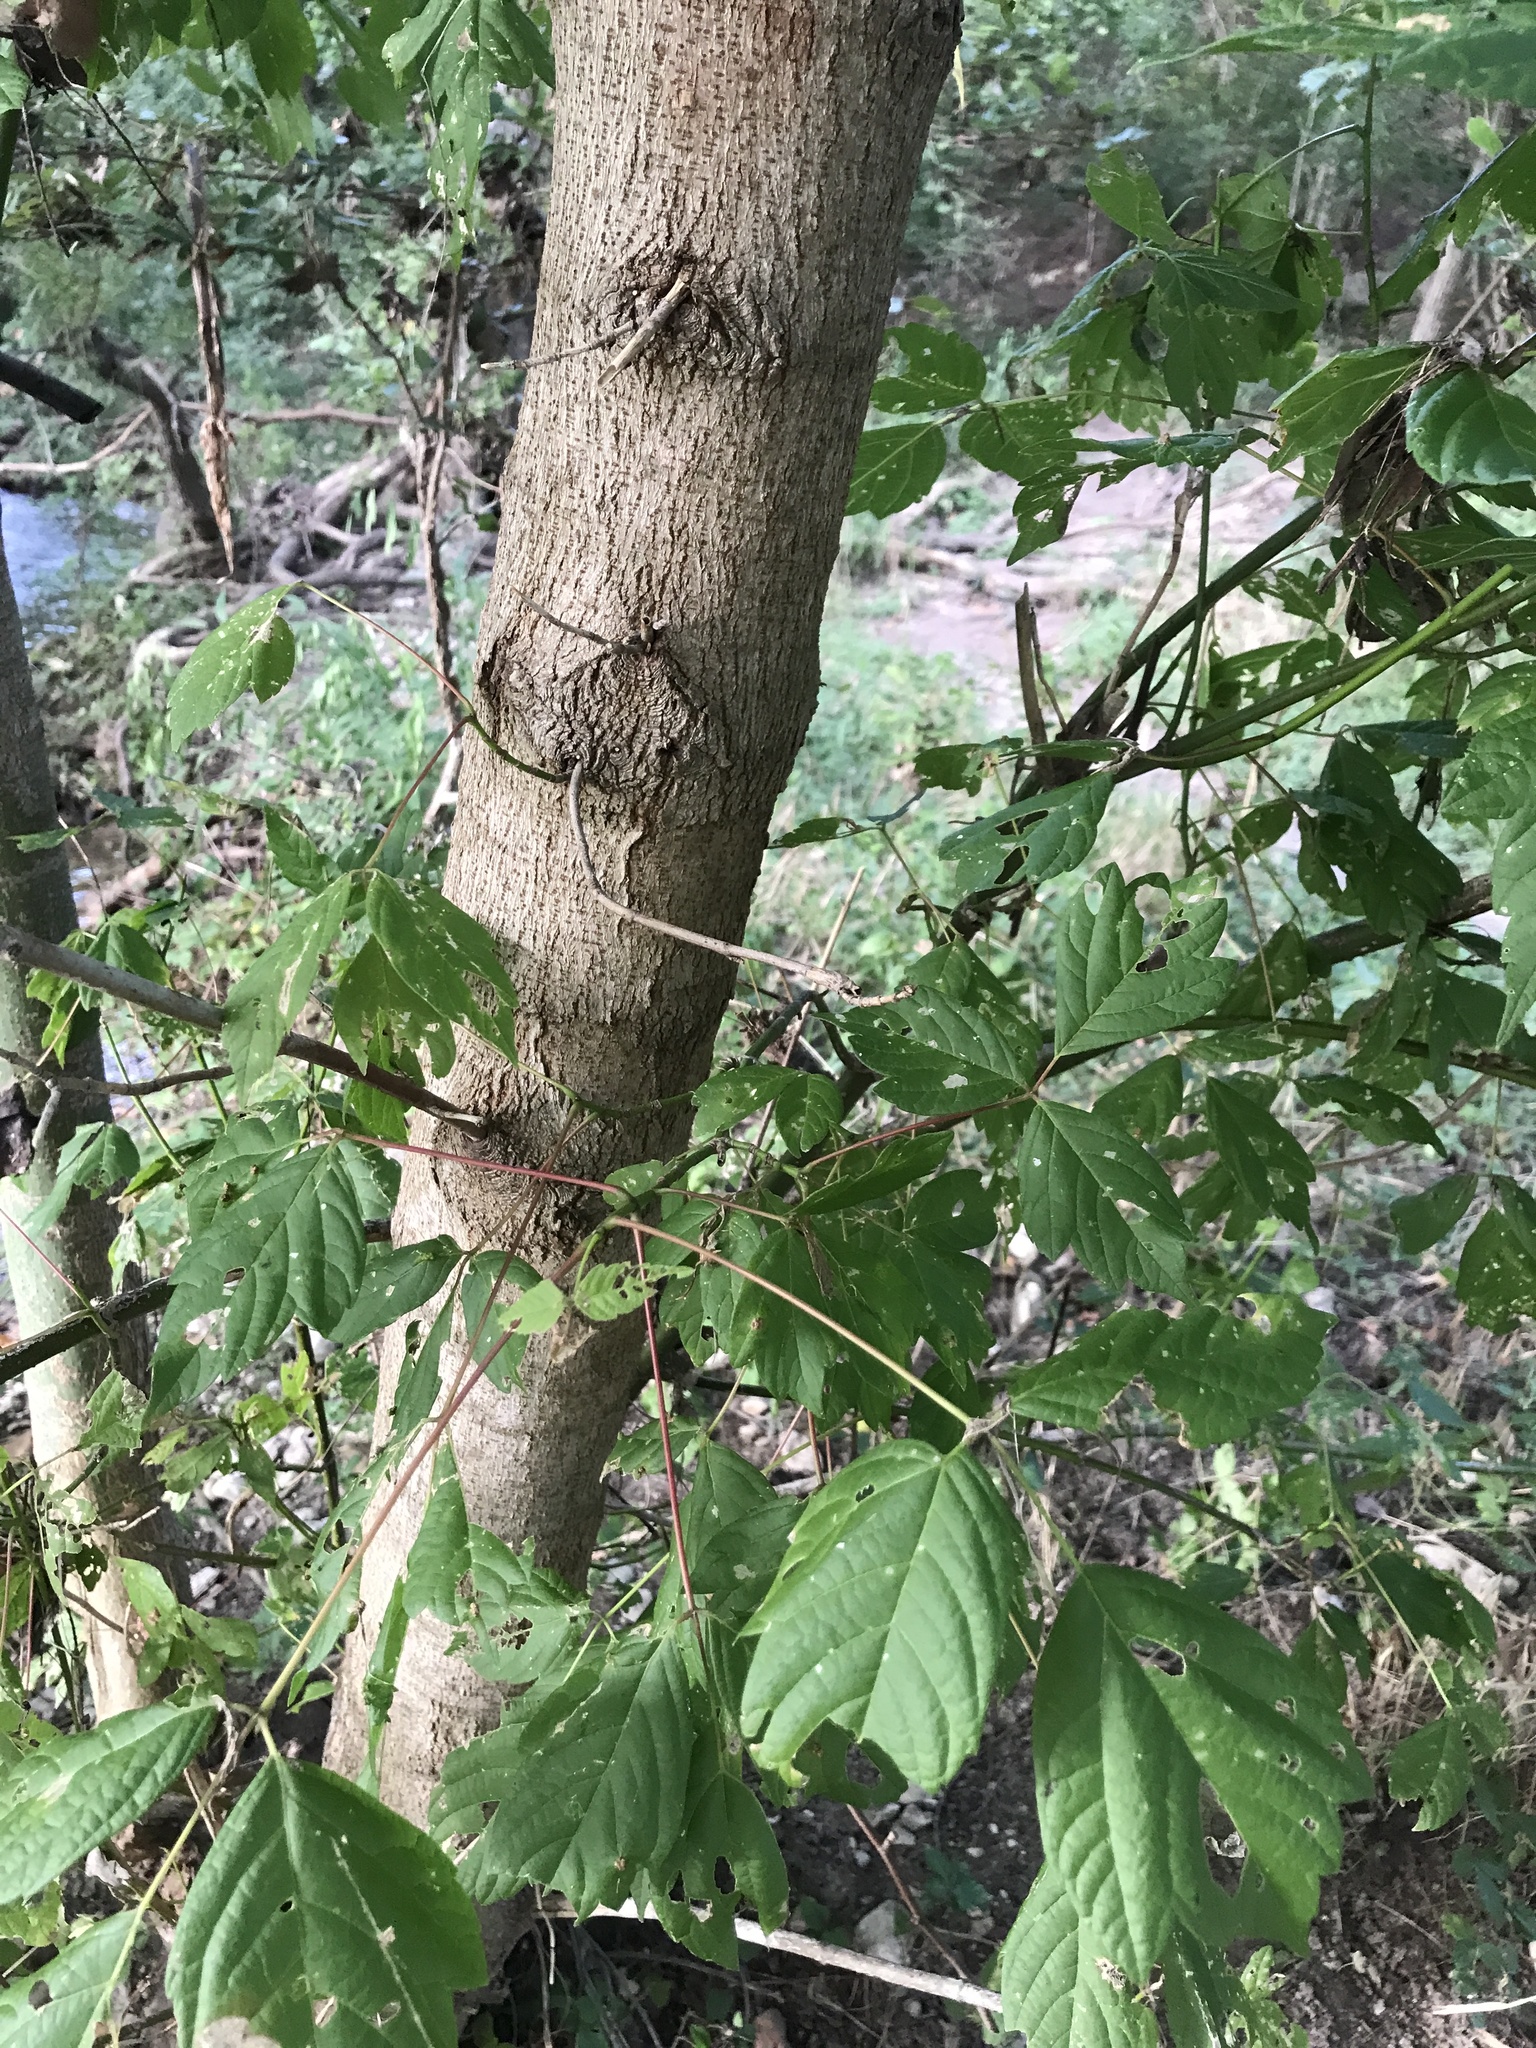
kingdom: Plantae
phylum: Tracheophyta
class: Magnoliopsida
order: Sapindales
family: Sapindaceae
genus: Acer
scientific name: Acer negundo
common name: Ashleaf maple
